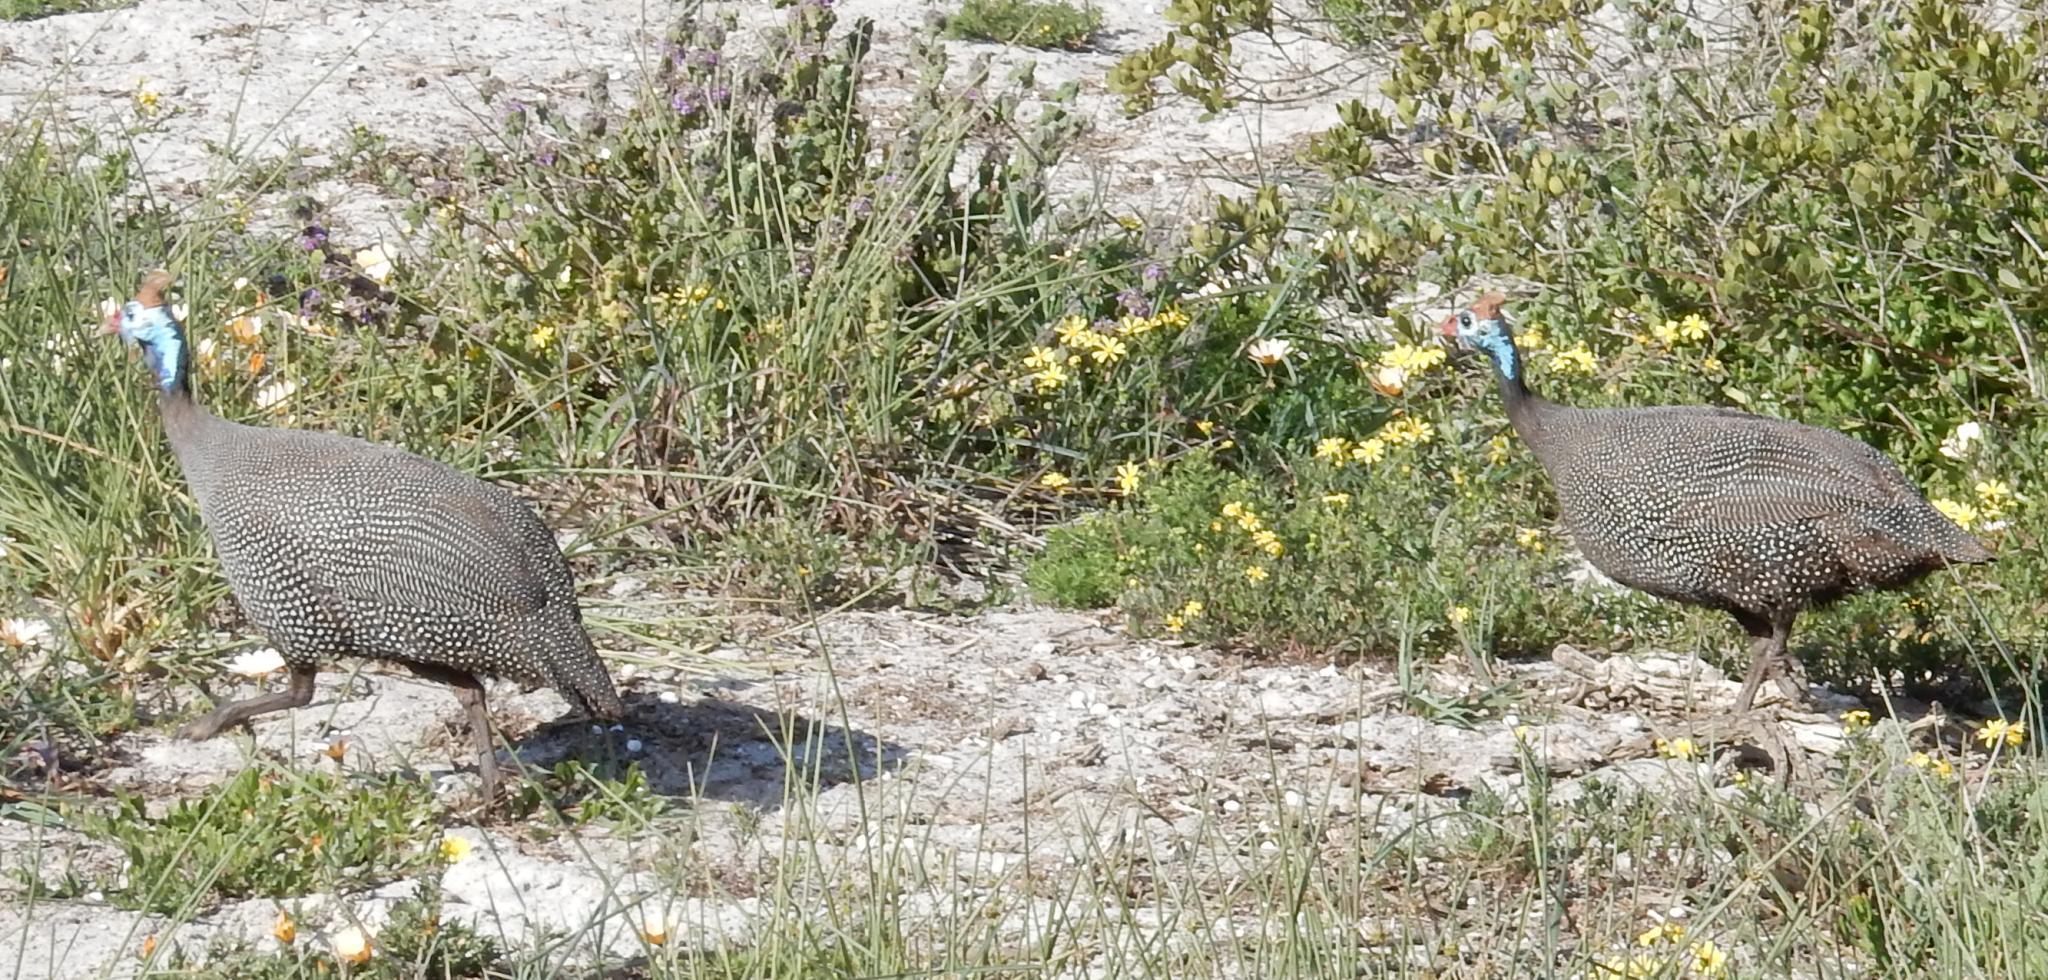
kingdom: Animalia
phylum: Chordata
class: Aves
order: Galliformes
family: Numididae
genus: Numida
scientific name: Numida meleagris
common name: Helmeted guineafowl
